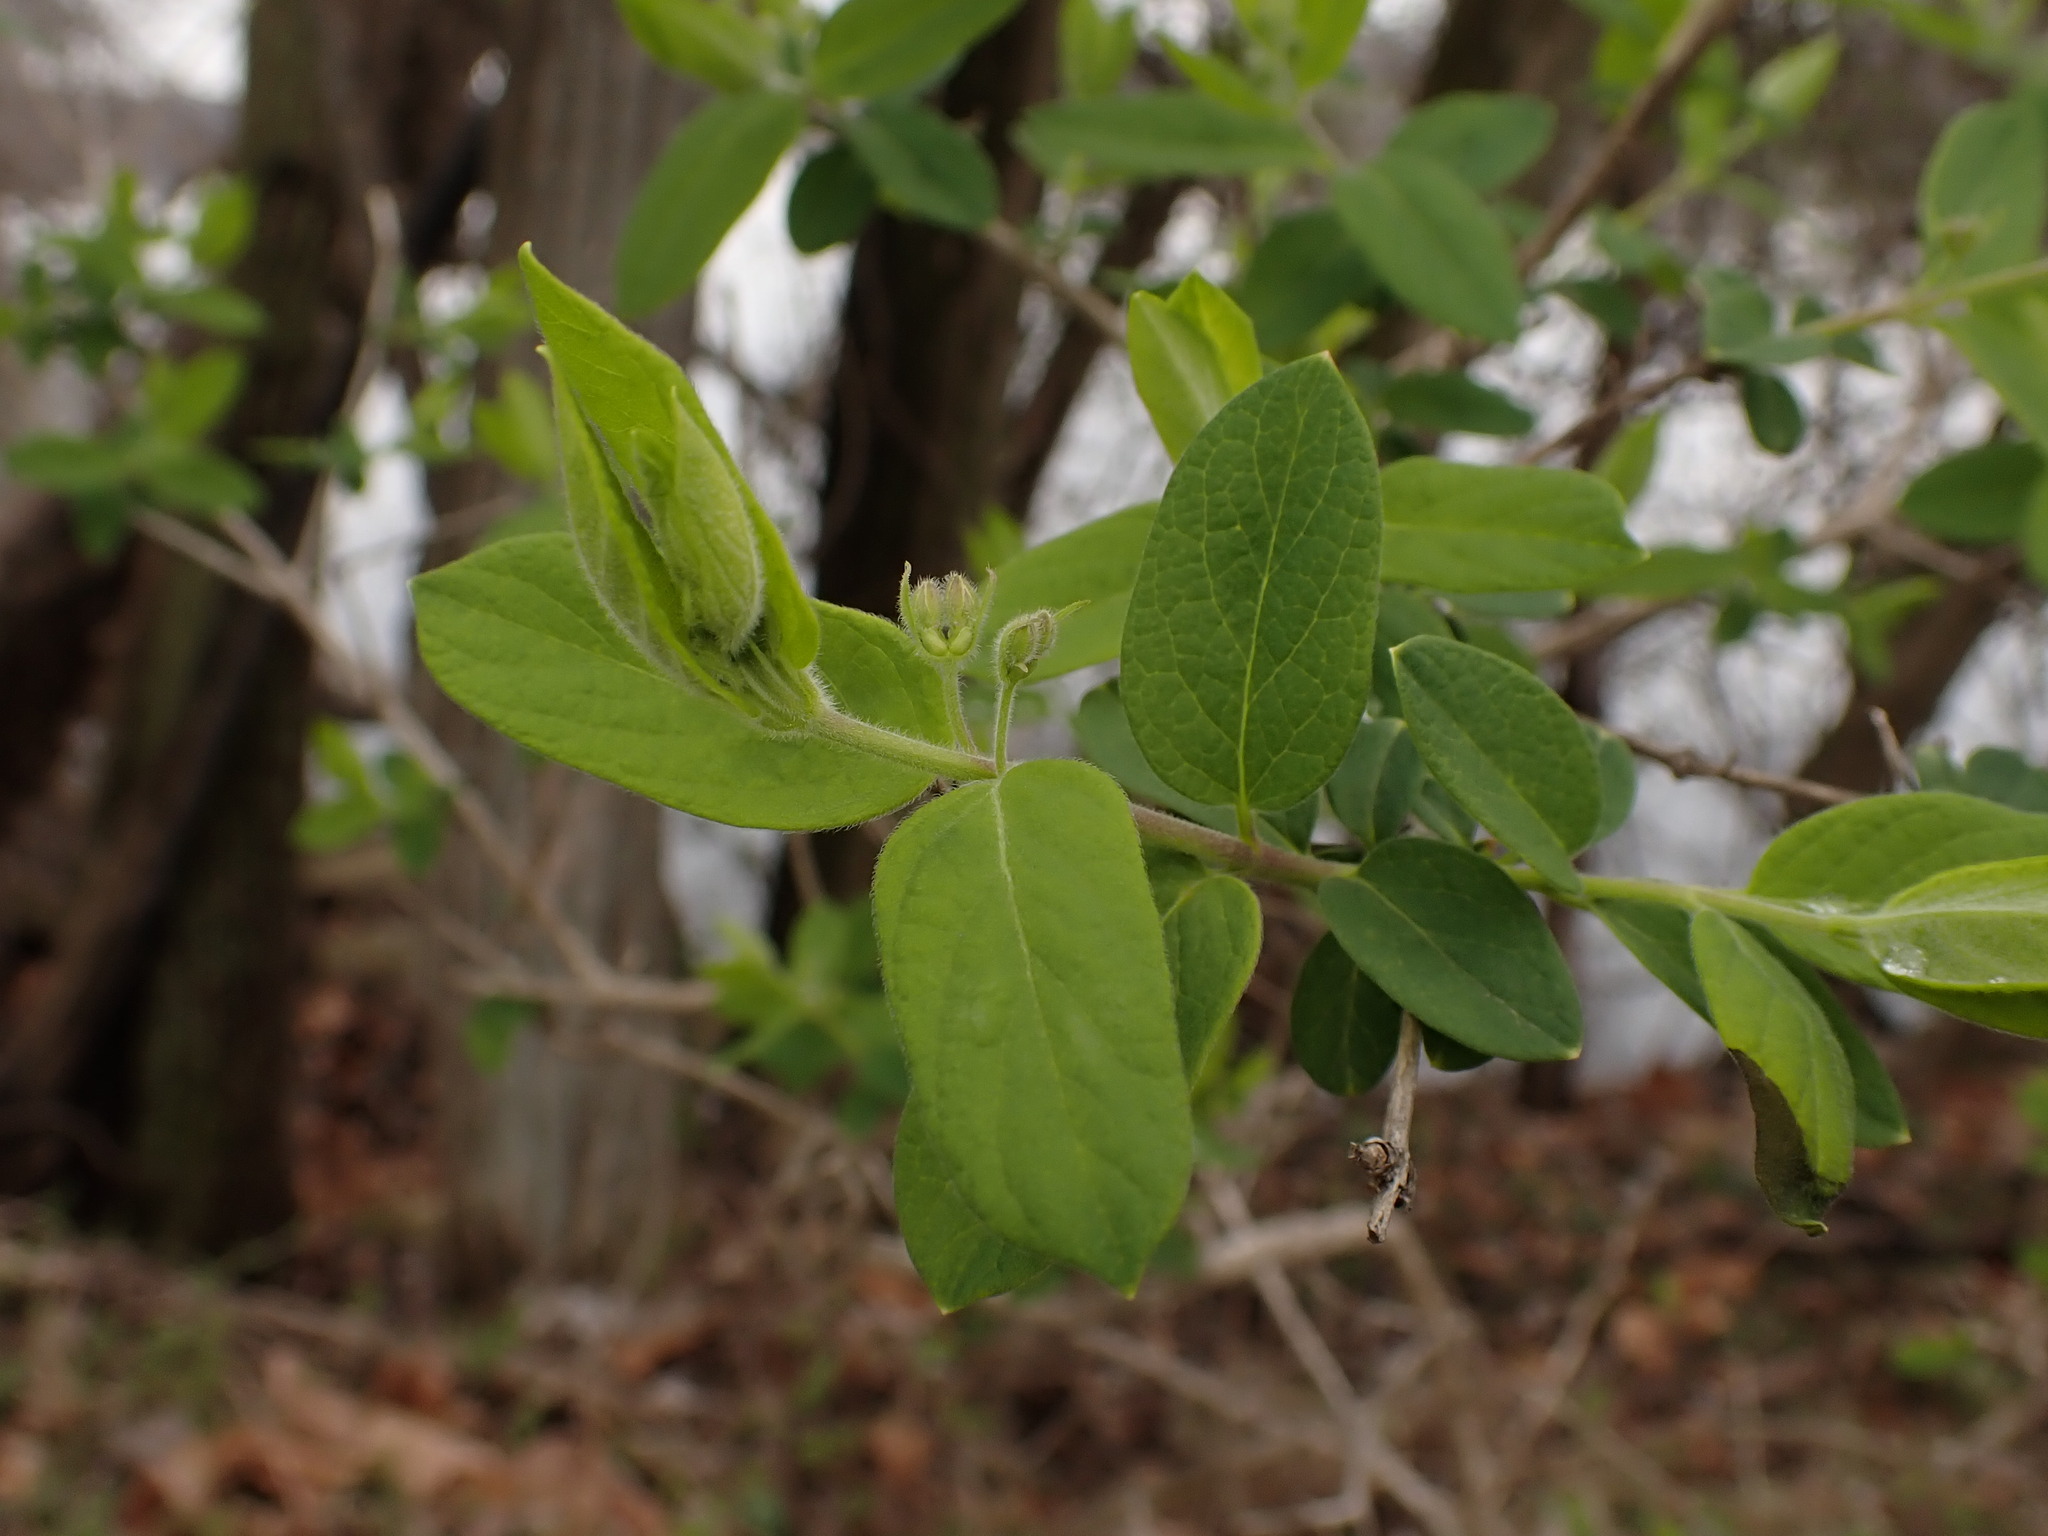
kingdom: Plantae
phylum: Tracheophyta
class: Magnoliopsida
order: Dipsacales
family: Caprifoliaceae
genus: Lonicera
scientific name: Lonicera morrowii
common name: Morrow's honeysuckle
